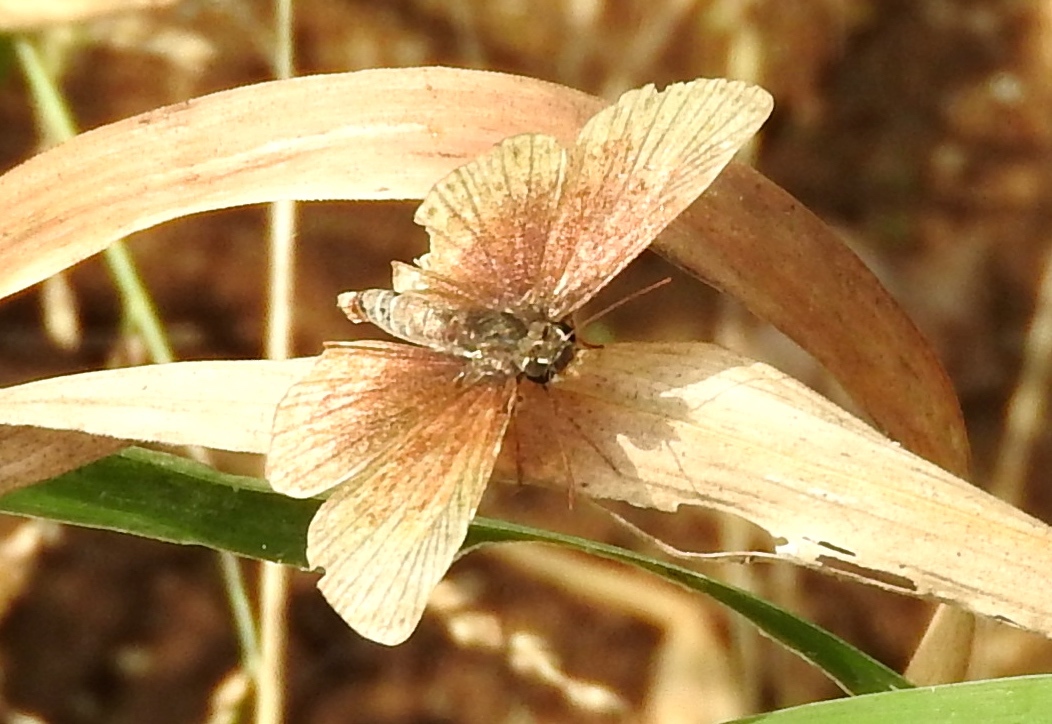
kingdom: Animalia
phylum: Arthropoda
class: Insecta
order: Lepidoptera
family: Hesperiidae
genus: Zopyrion
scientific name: Zopyrion sandace
